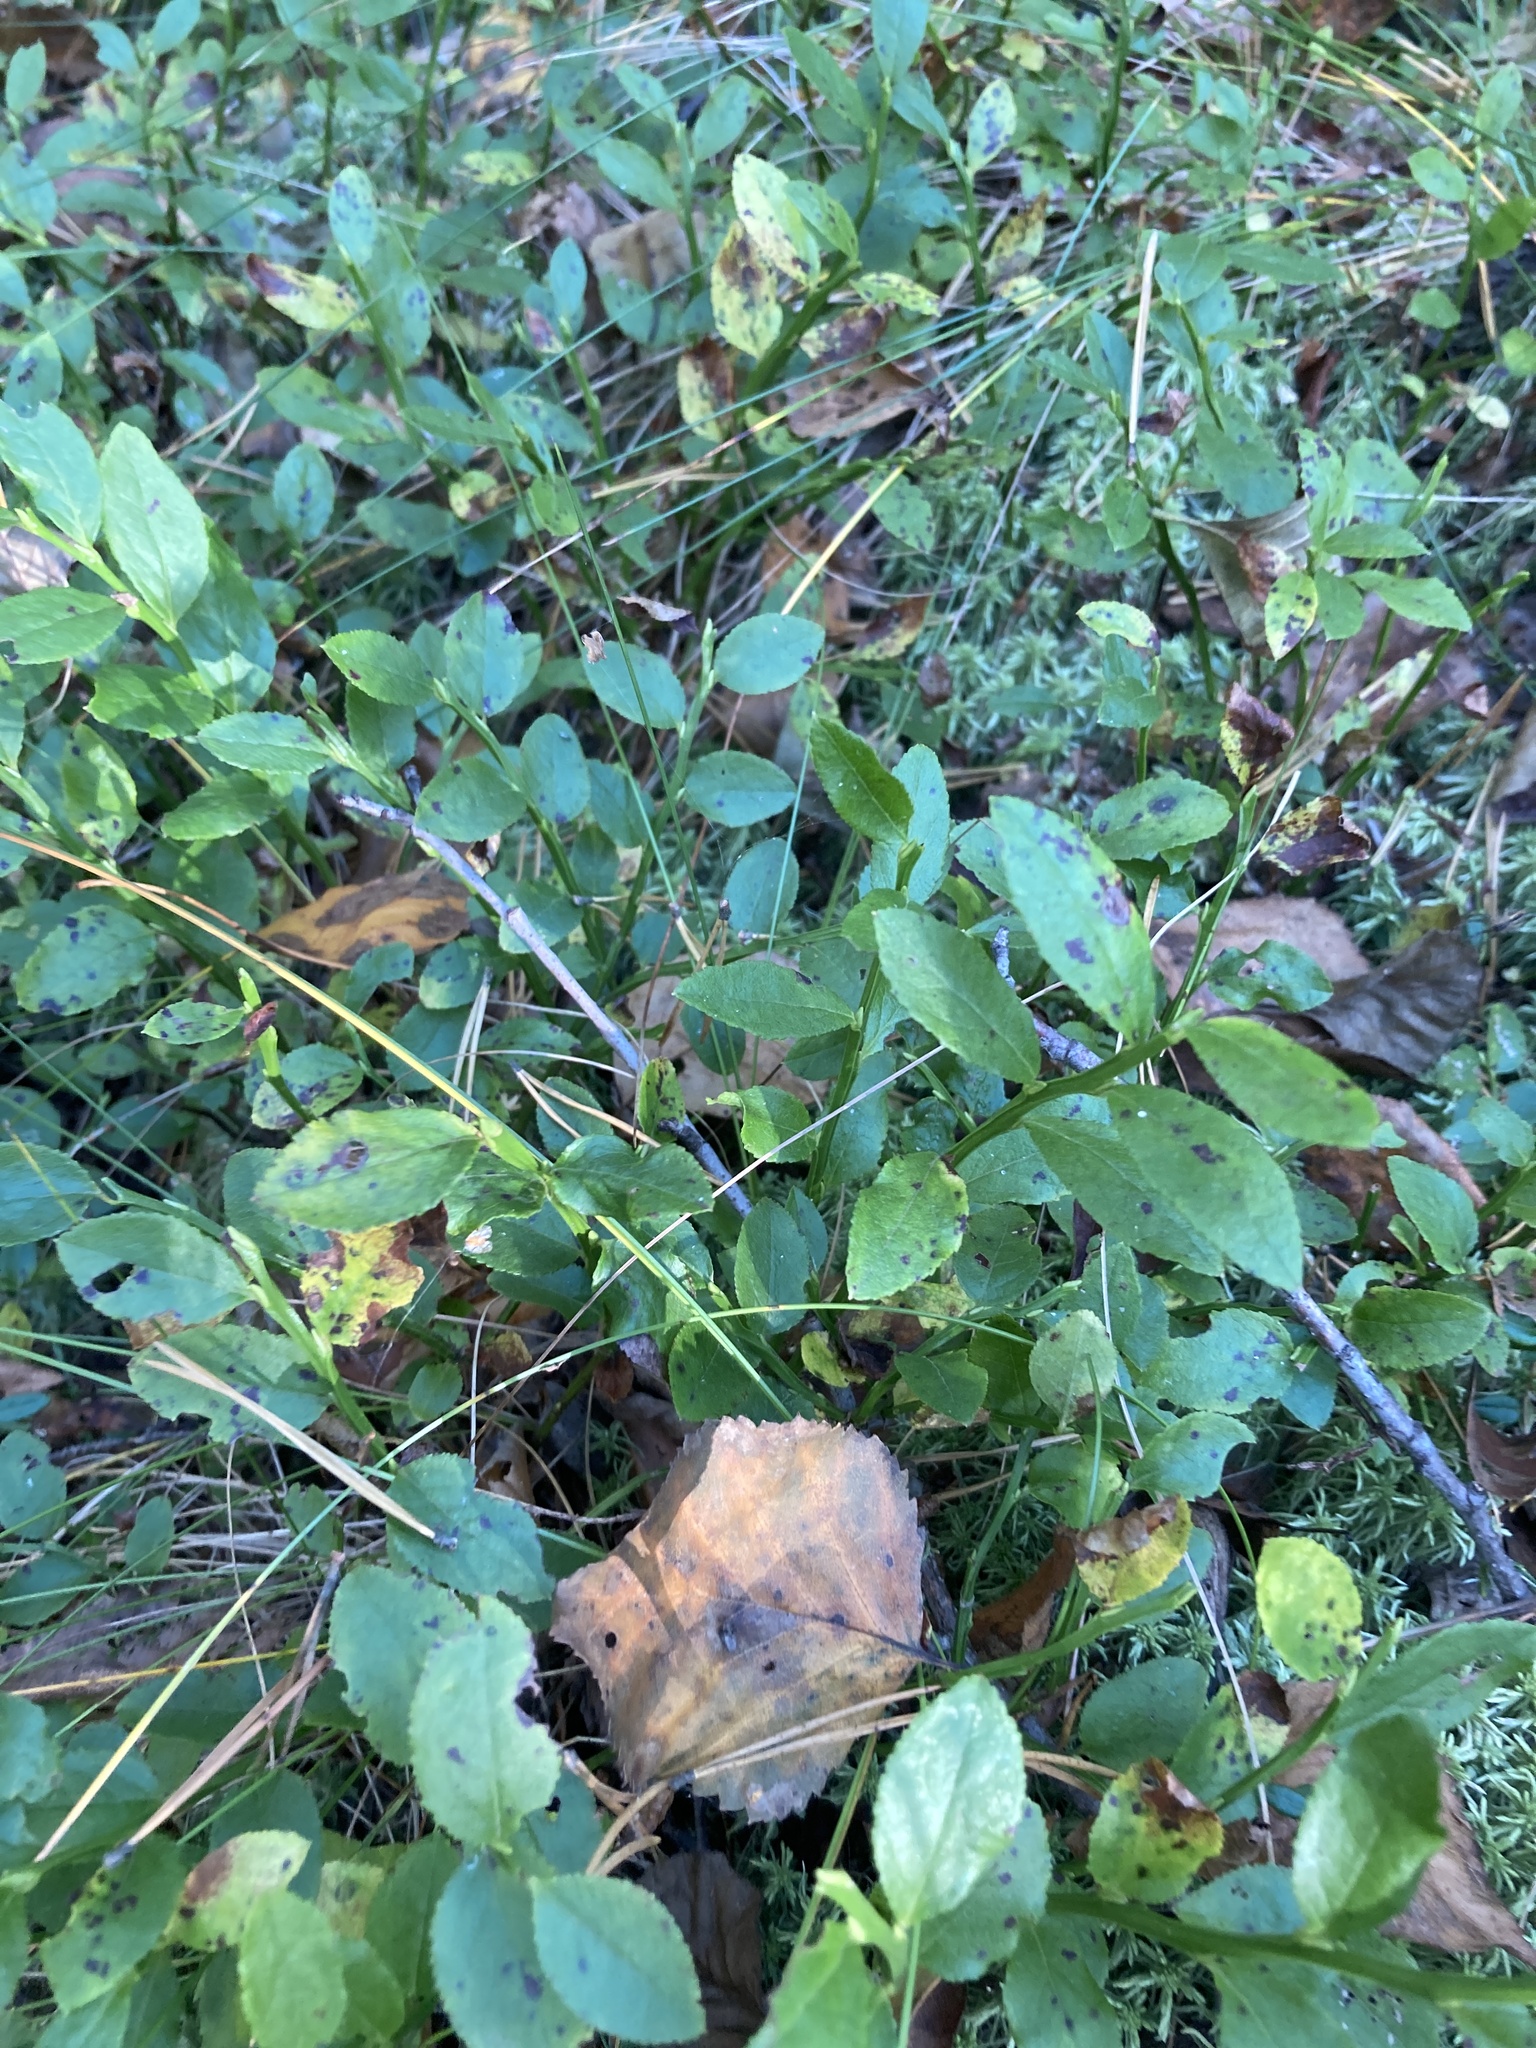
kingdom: Plantae
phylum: Tracheophyta
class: Magnoliopsida
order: Ericales
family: Ericaceae
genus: Vaccinium
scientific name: Vaccinium myrtillus
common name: Bilberry
